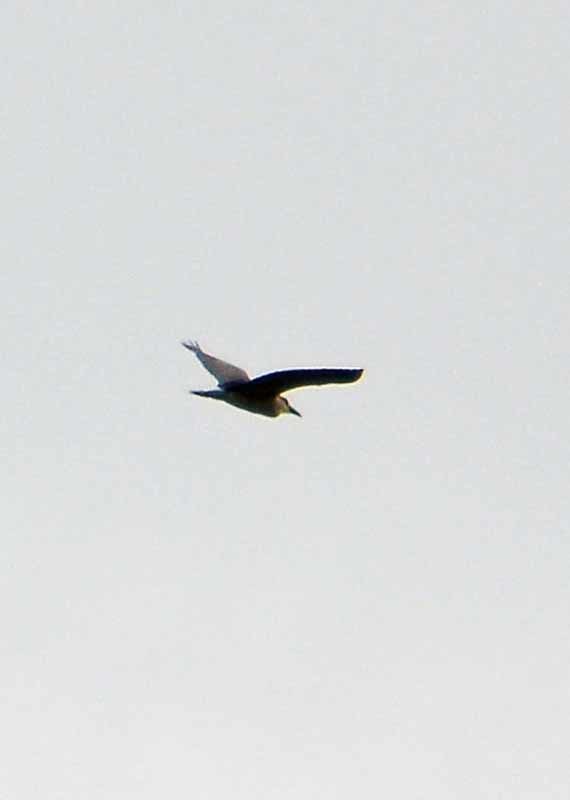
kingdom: Animalia
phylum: Chordata
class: Aves
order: Pelecaniformes
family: Ardeidae
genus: Nycticorax
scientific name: Nycticorax nycticorax
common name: Black-crowned night heron
